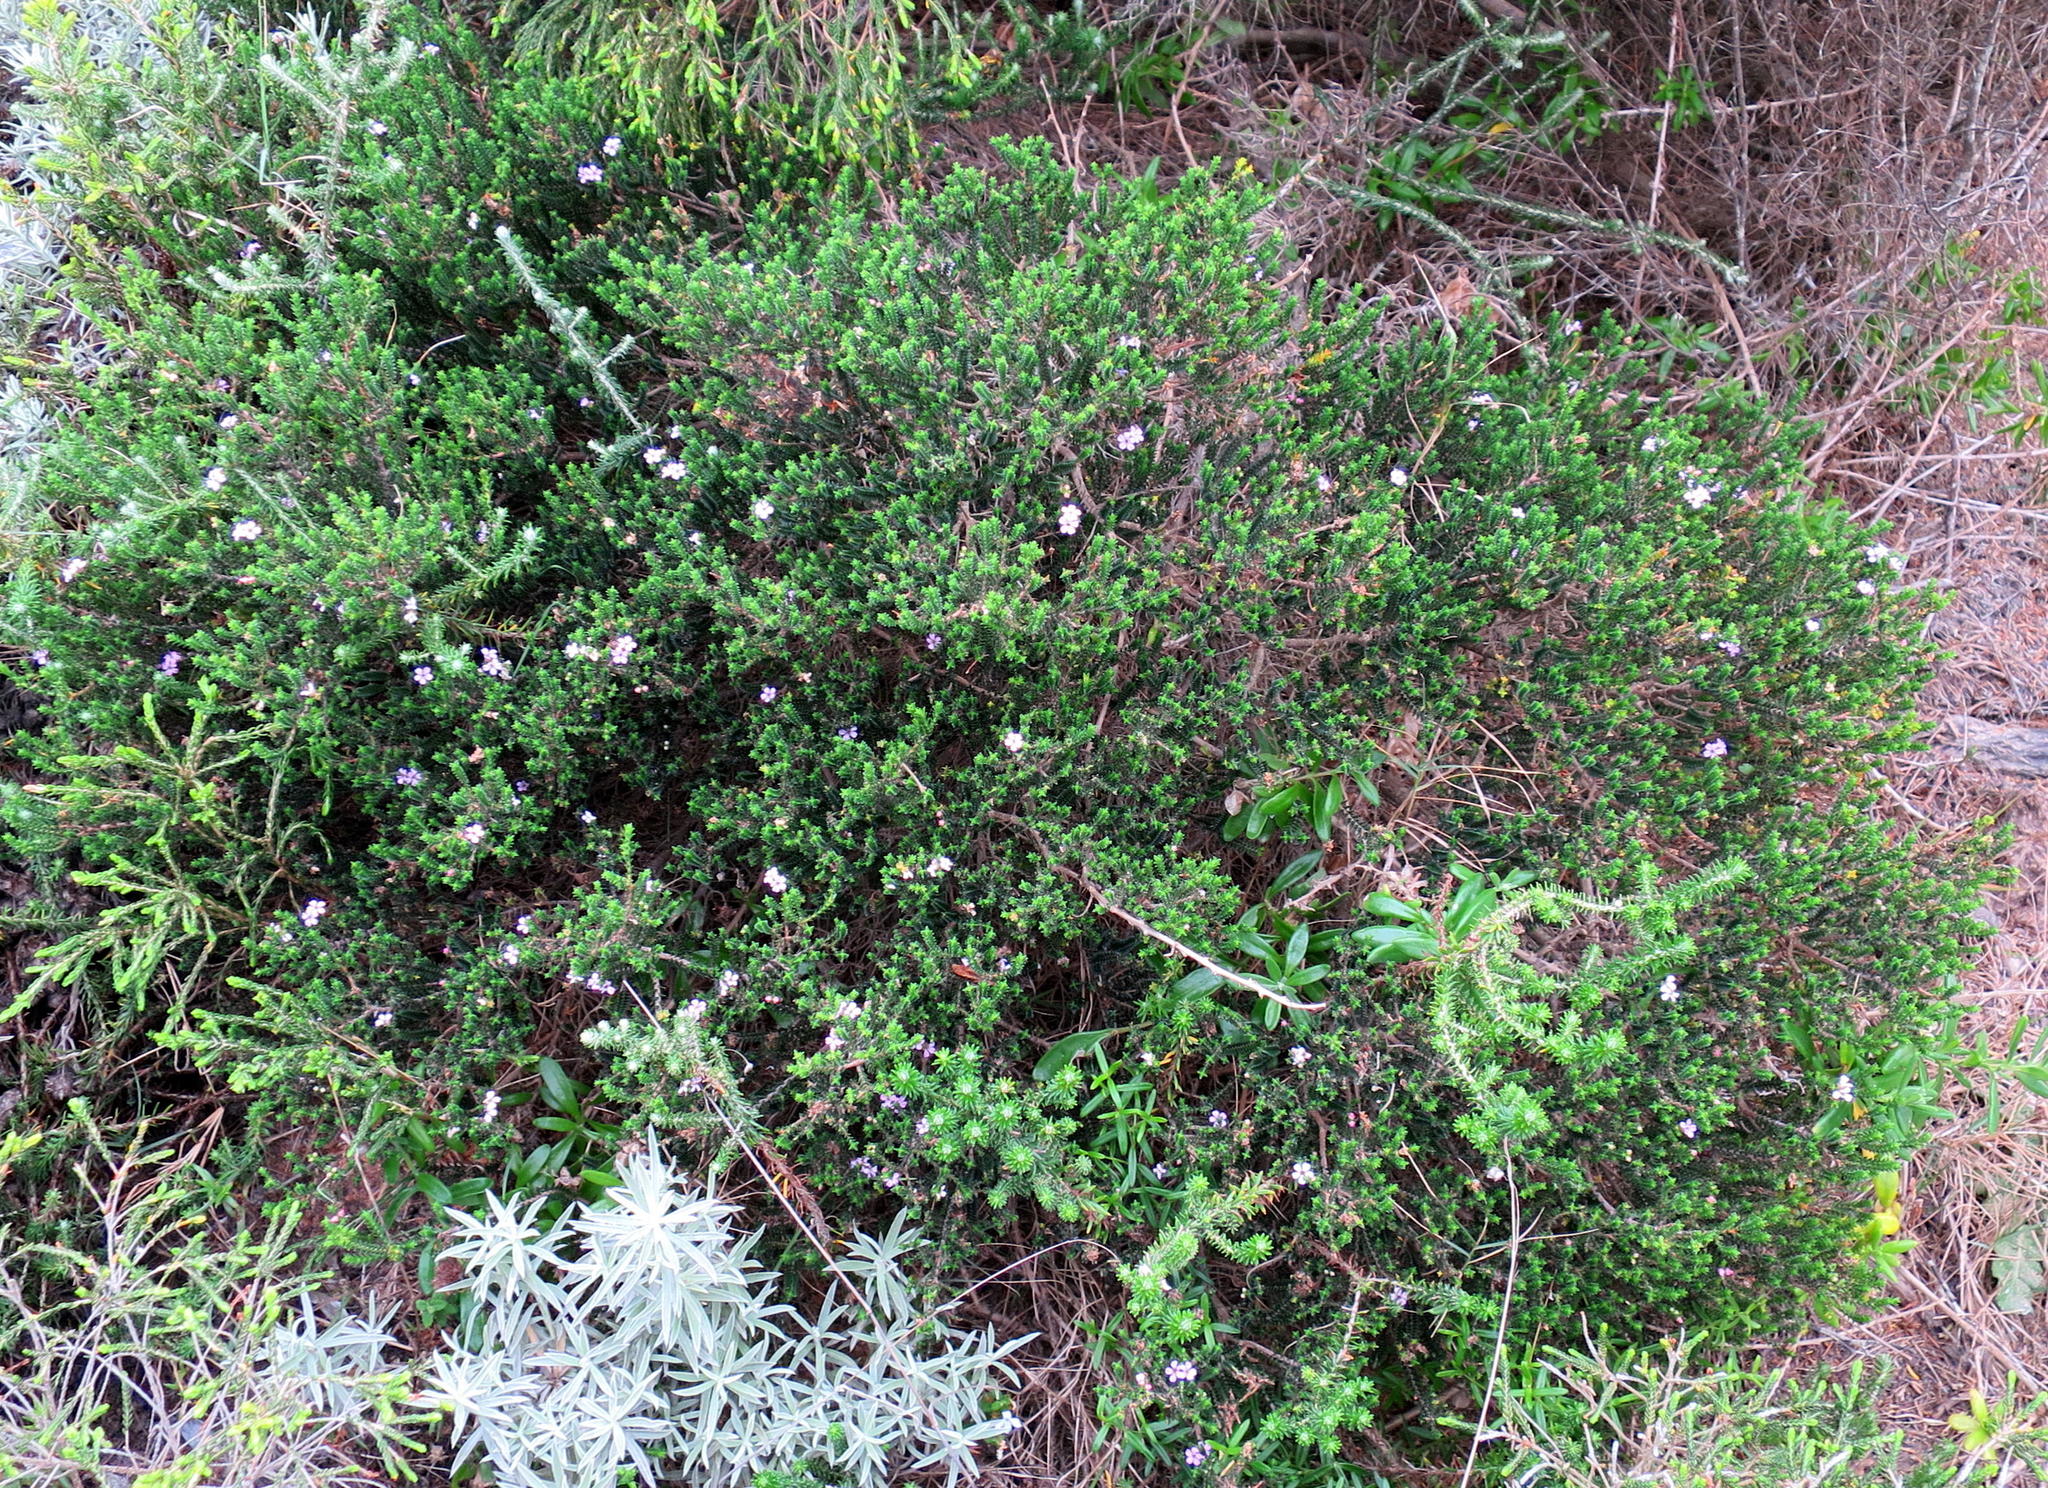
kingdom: Plantae
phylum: Tracheophyta
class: Magnoliopsida
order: Sapindales
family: Rutaceae
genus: Euchaetis
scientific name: Euchaetis albertiniana
